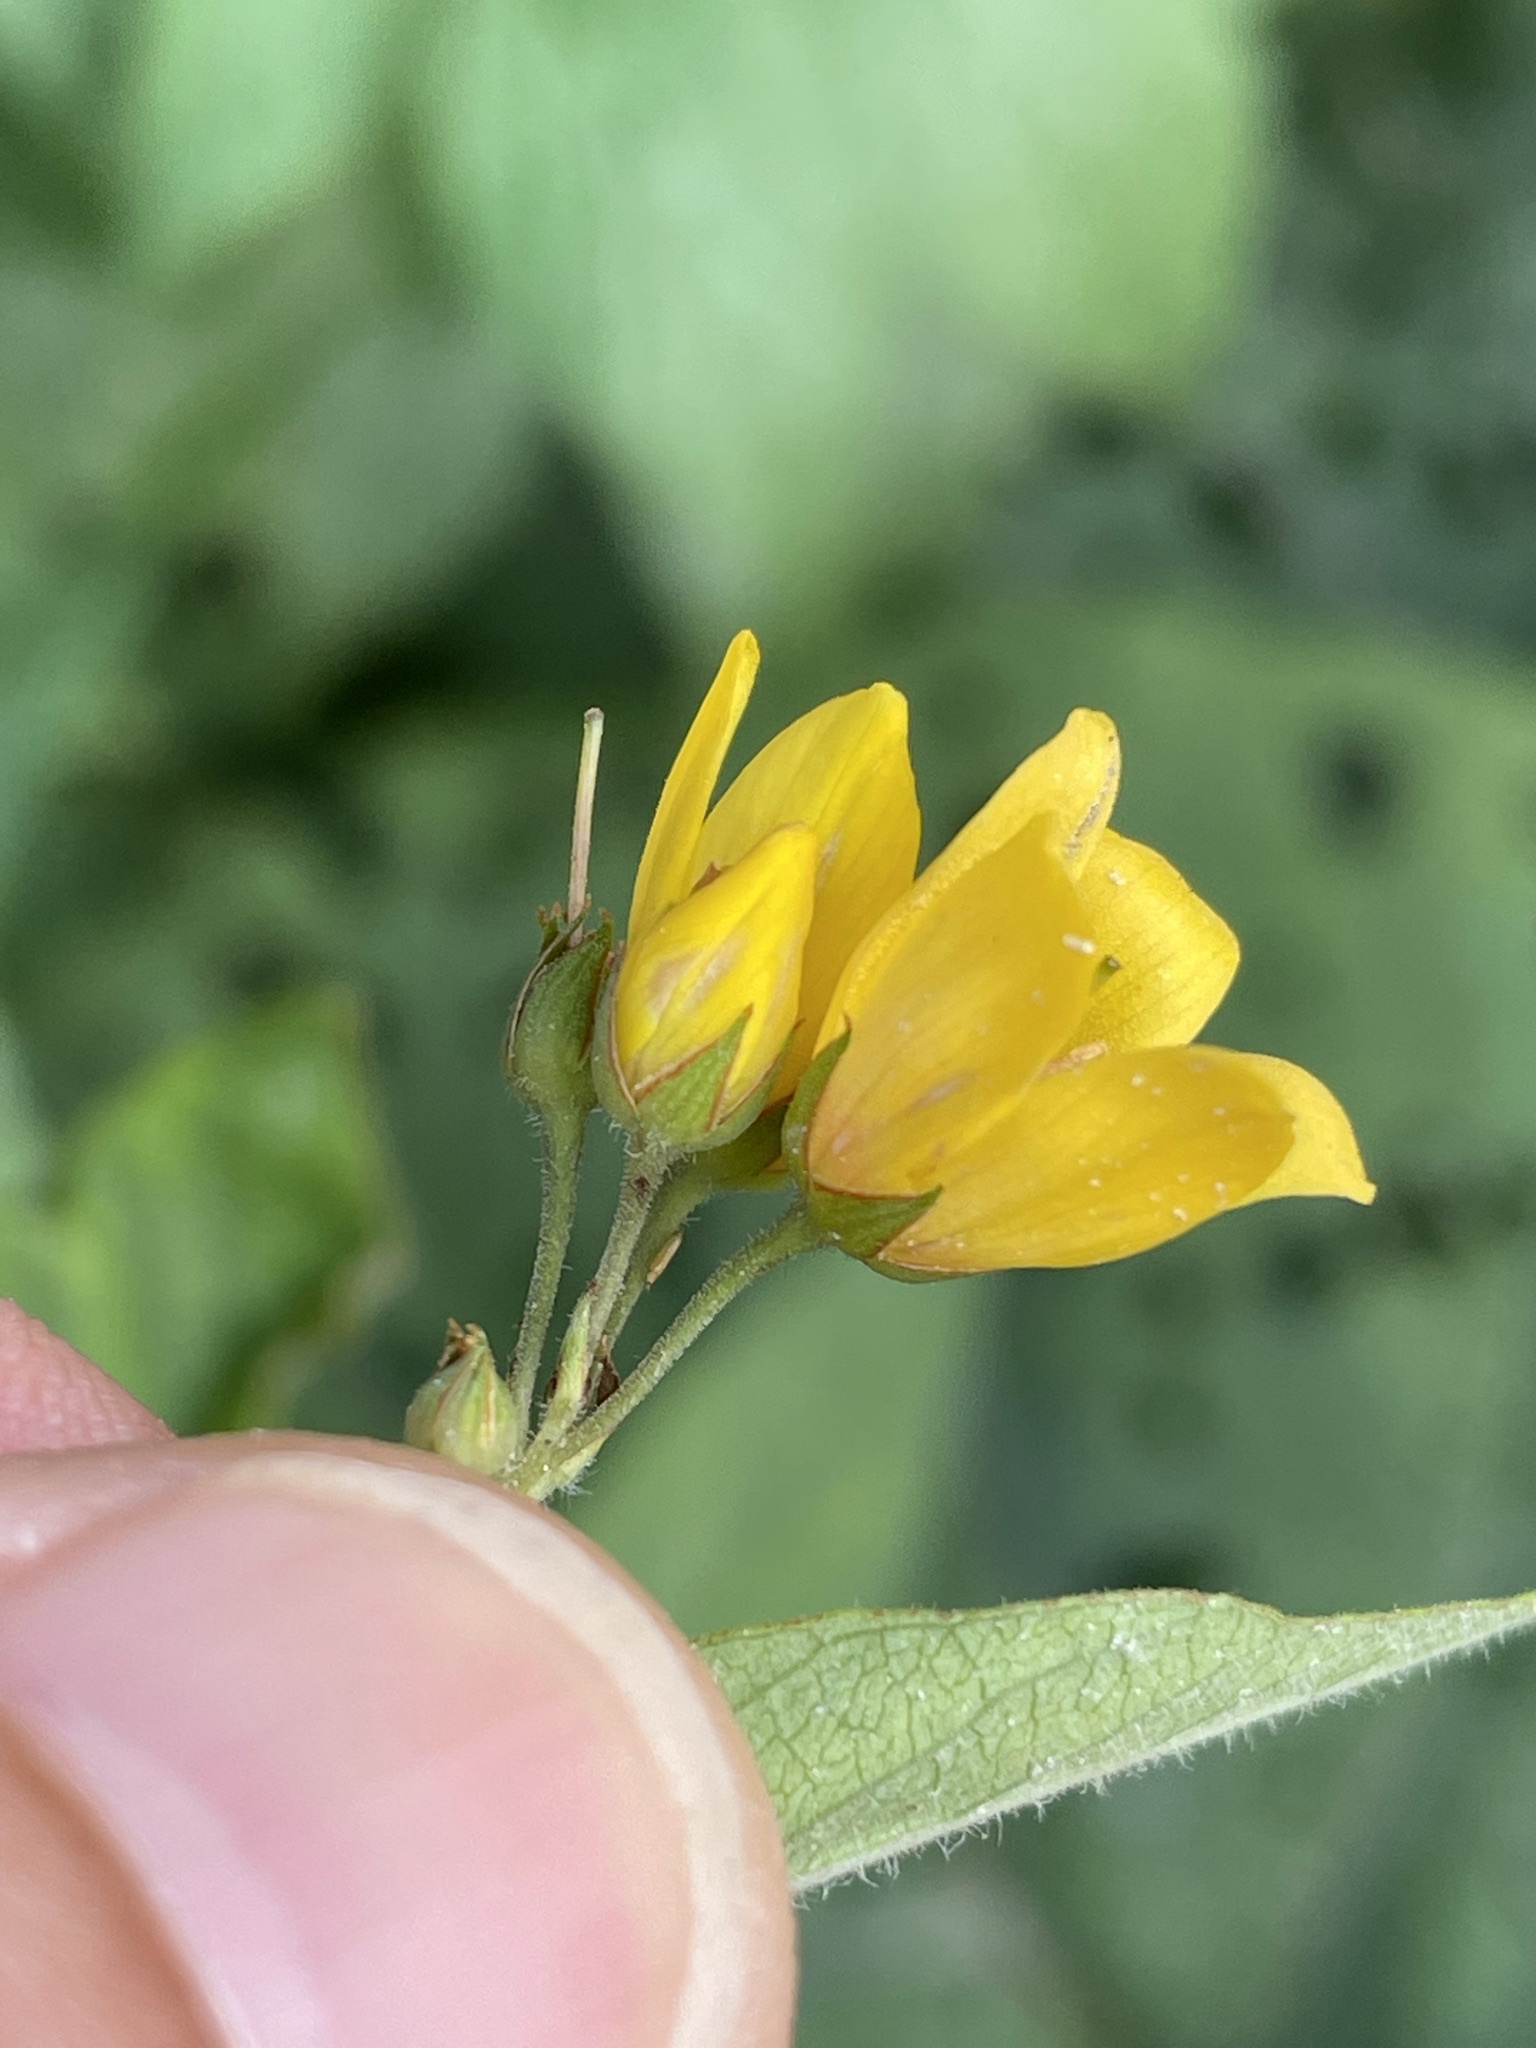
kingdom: Plantae
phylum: Tracheophyta
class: Magnoliopsida
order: Ericales
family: Primulaceae
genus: Lysimachia
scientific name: Lysimachia vulgaris
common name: Yellow loosestrife
